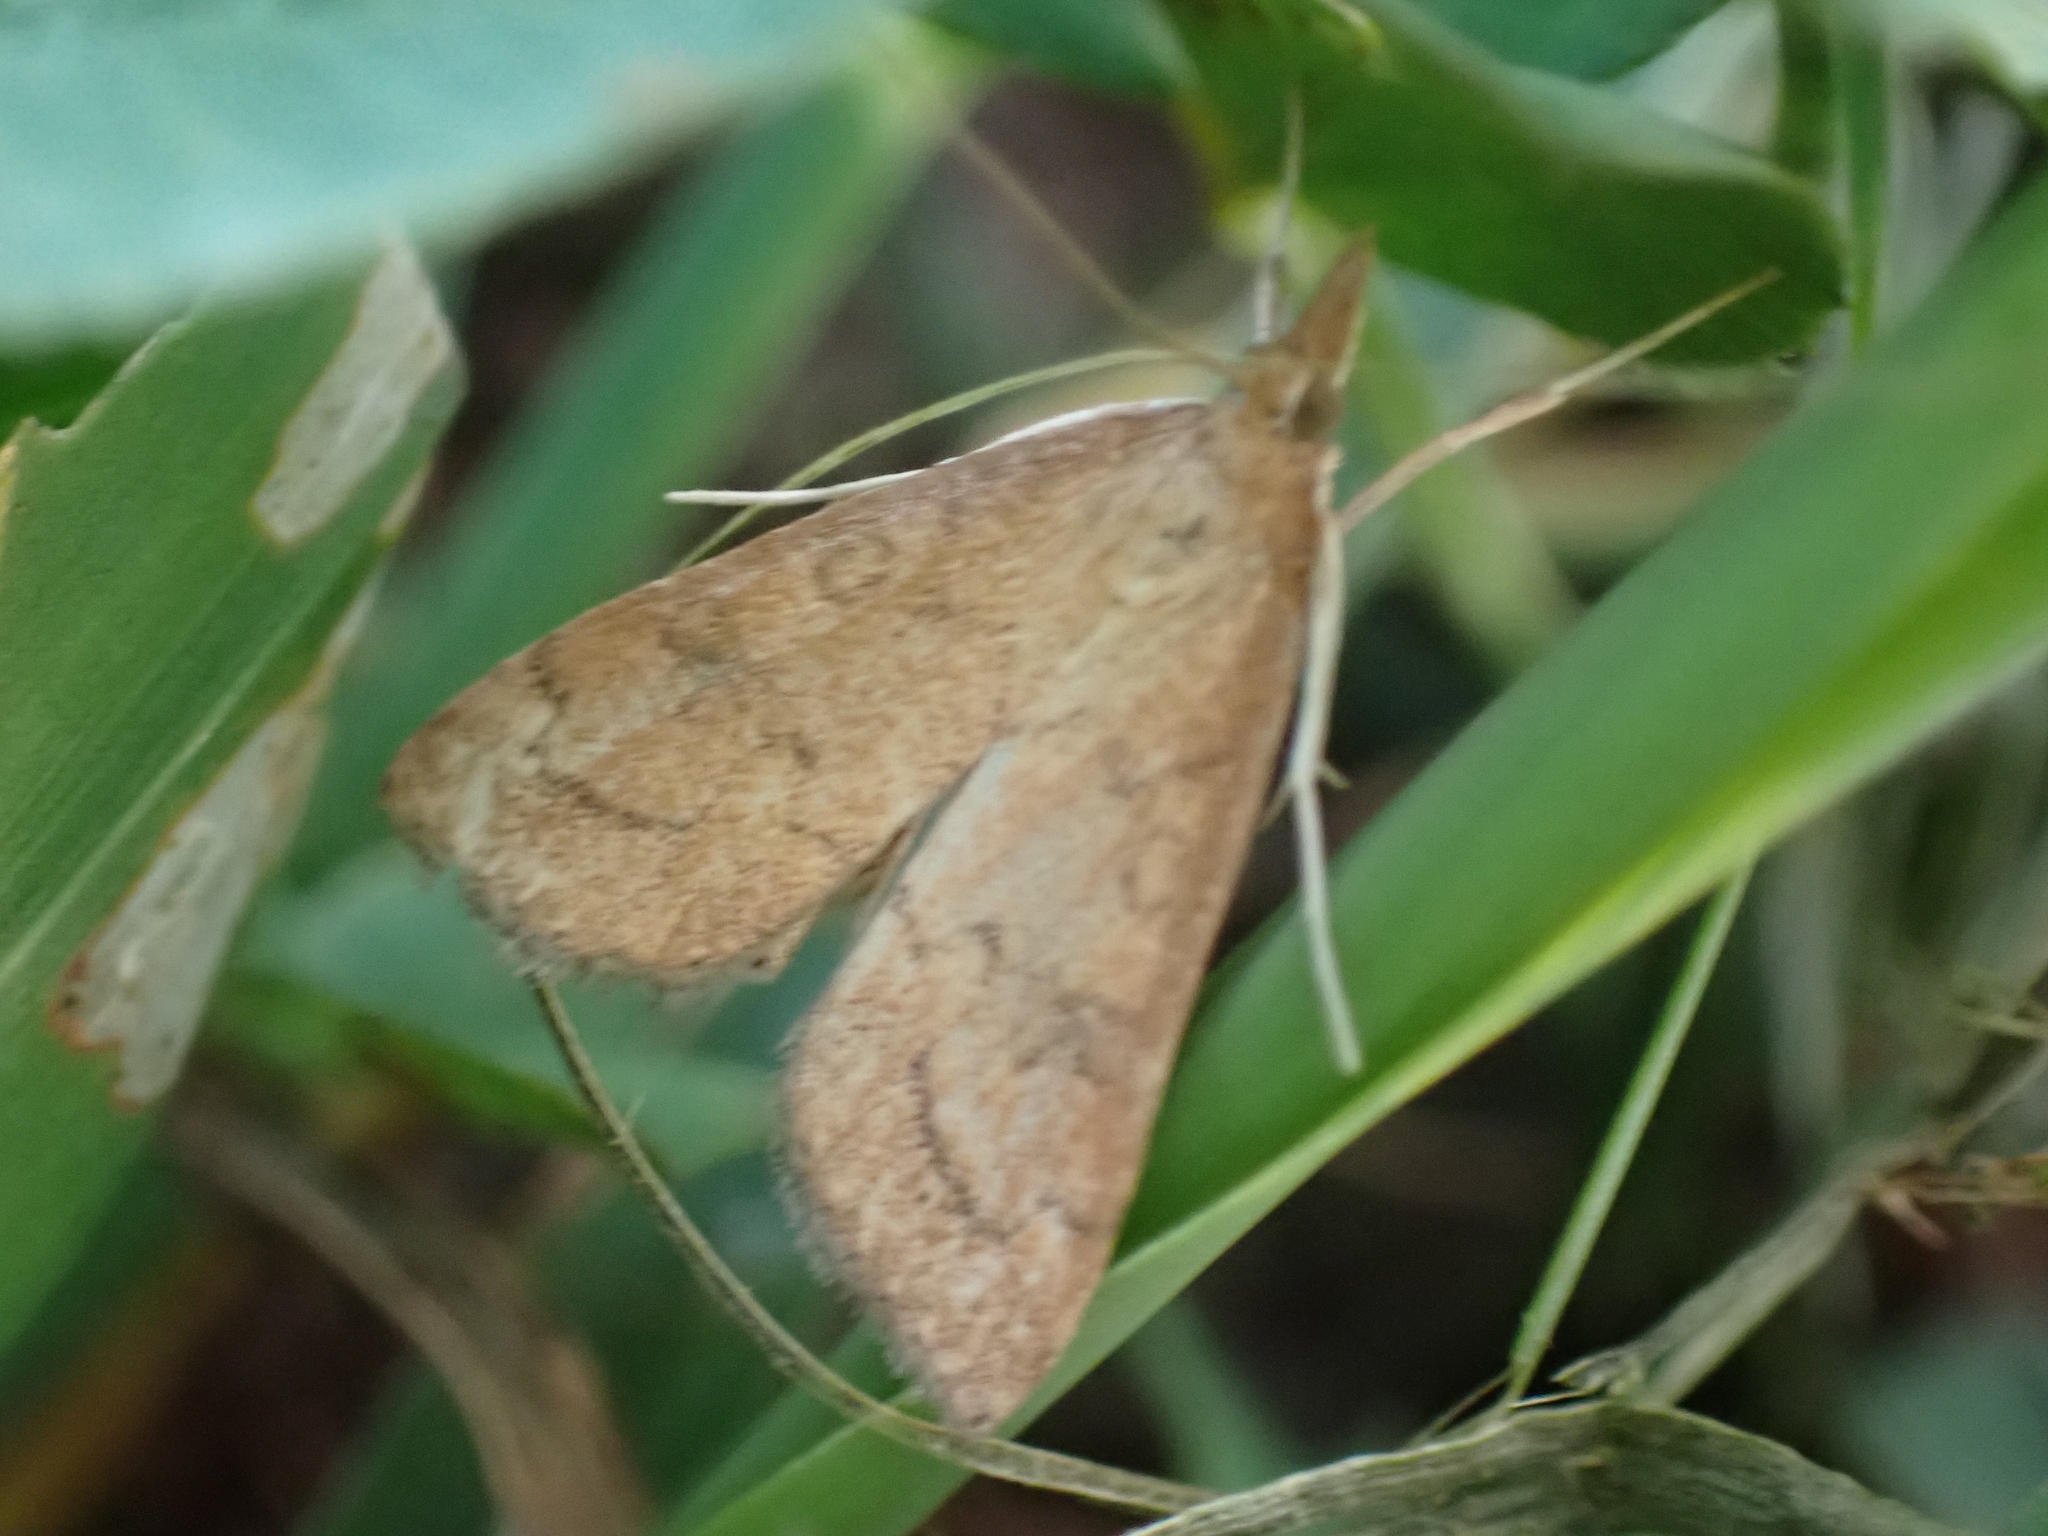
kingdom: Animalia
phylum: Arthropoda
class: Insecta
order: Lepidoptera
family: Crambidae
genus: Udea
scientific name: Udea rubigalis
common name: Celery leaftier moth
